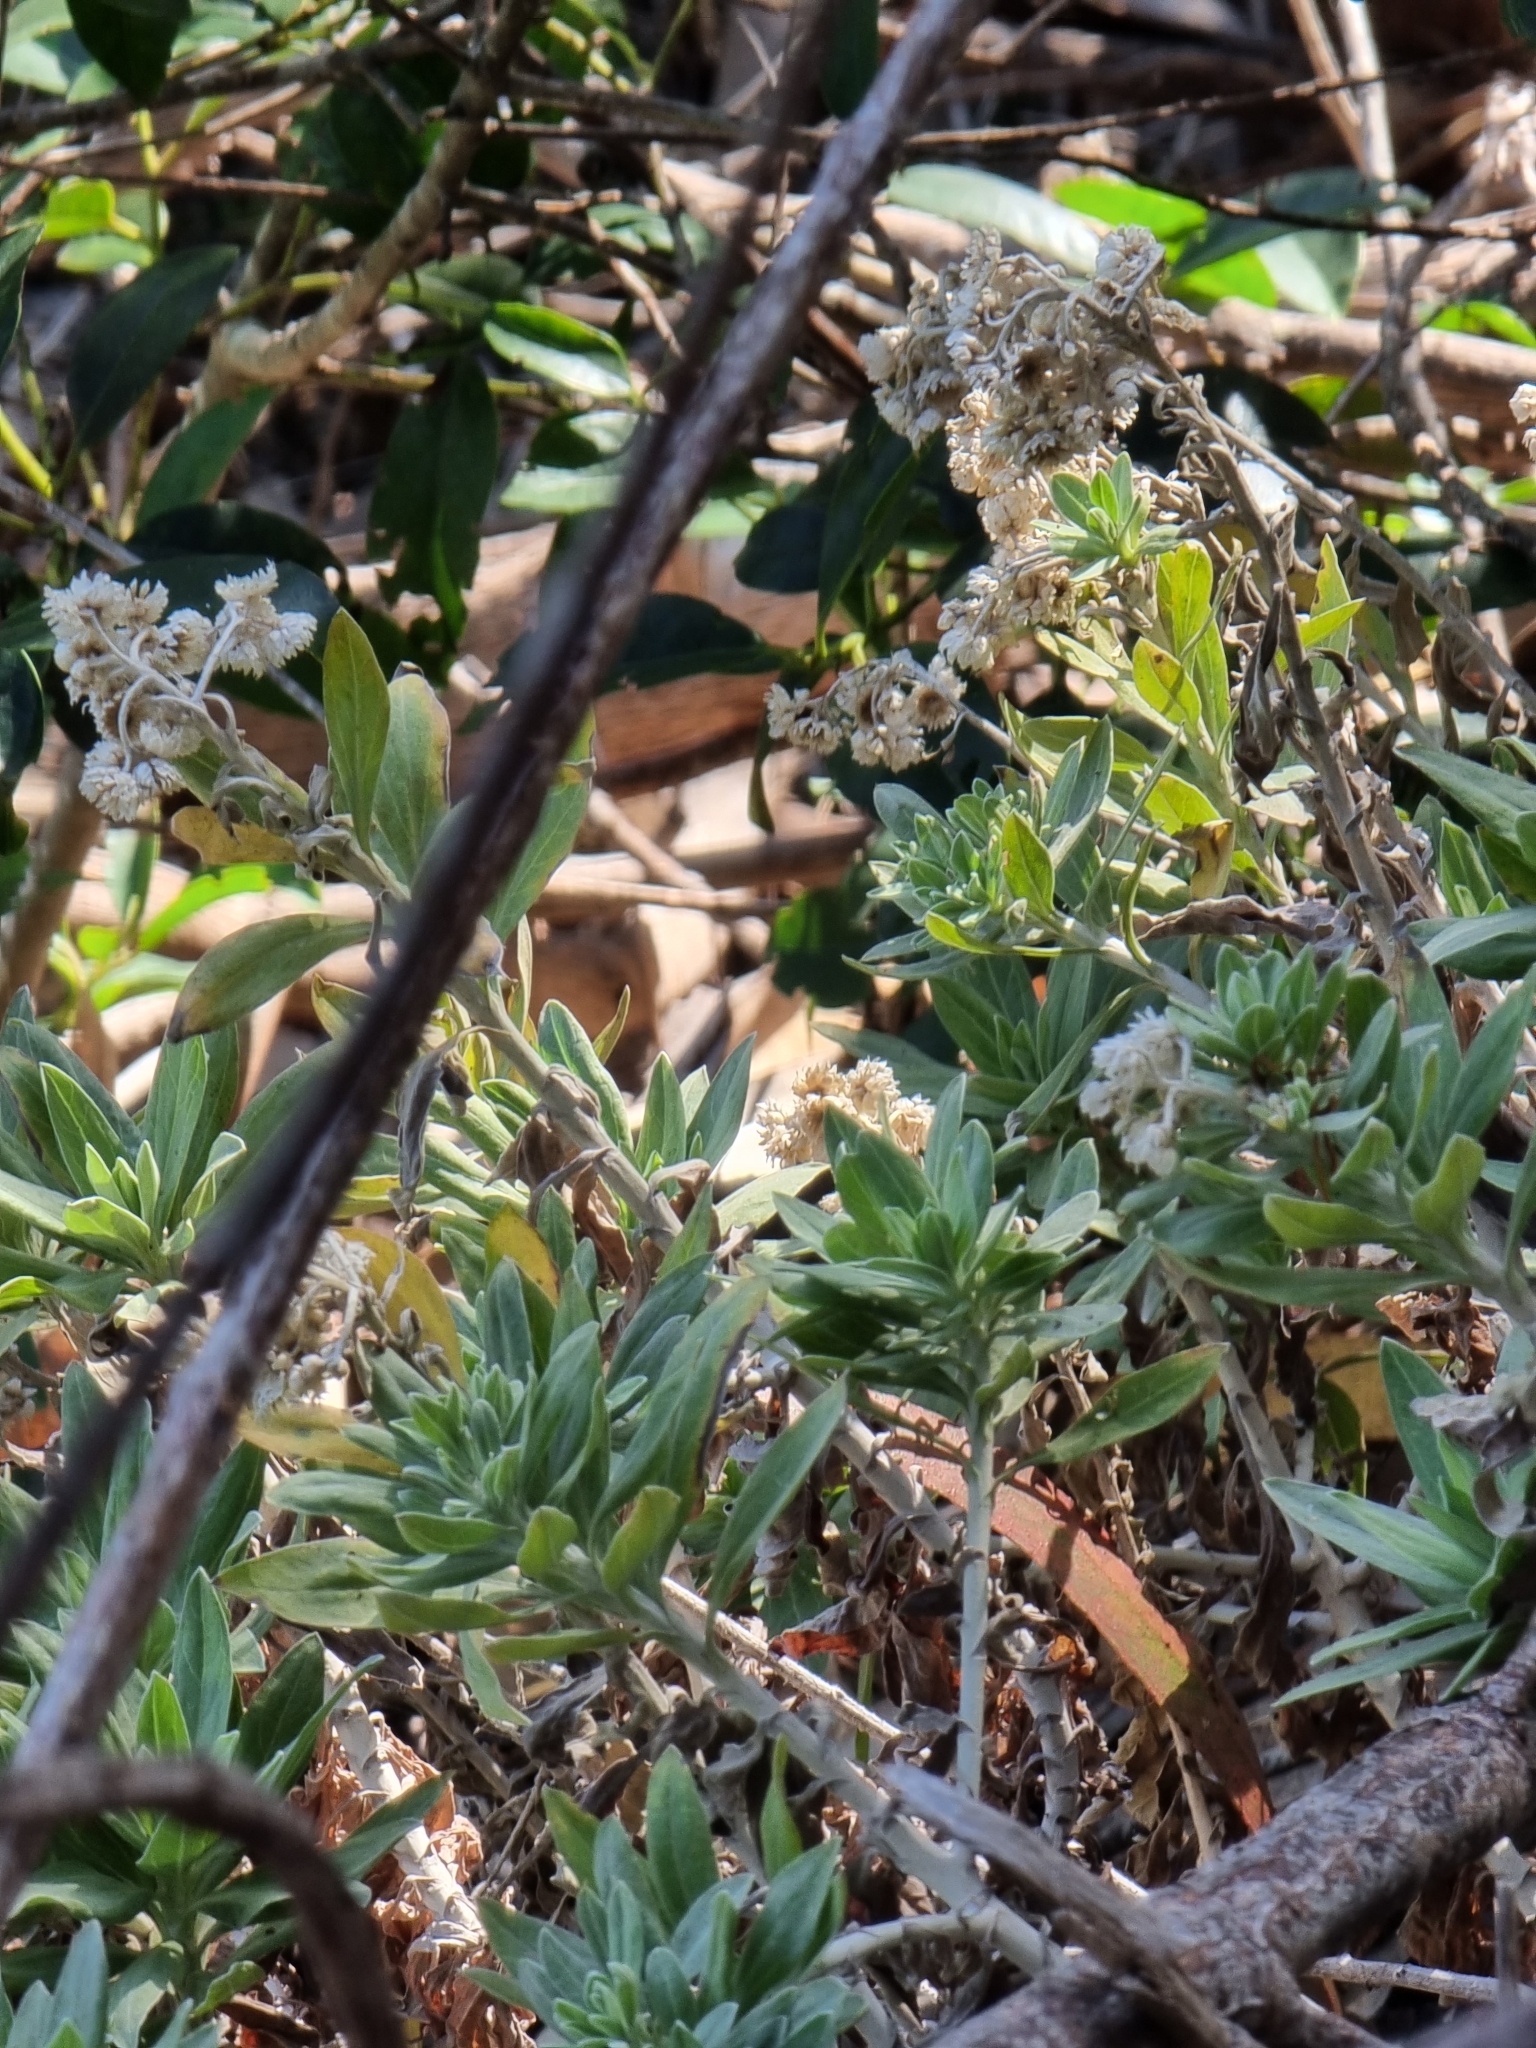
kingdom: Plantae
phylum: Tracheophyta
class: Magnoliopsida
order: Asterales
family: Asteraceae
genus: Helichrysum
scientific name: Helichrysum melaleucum
